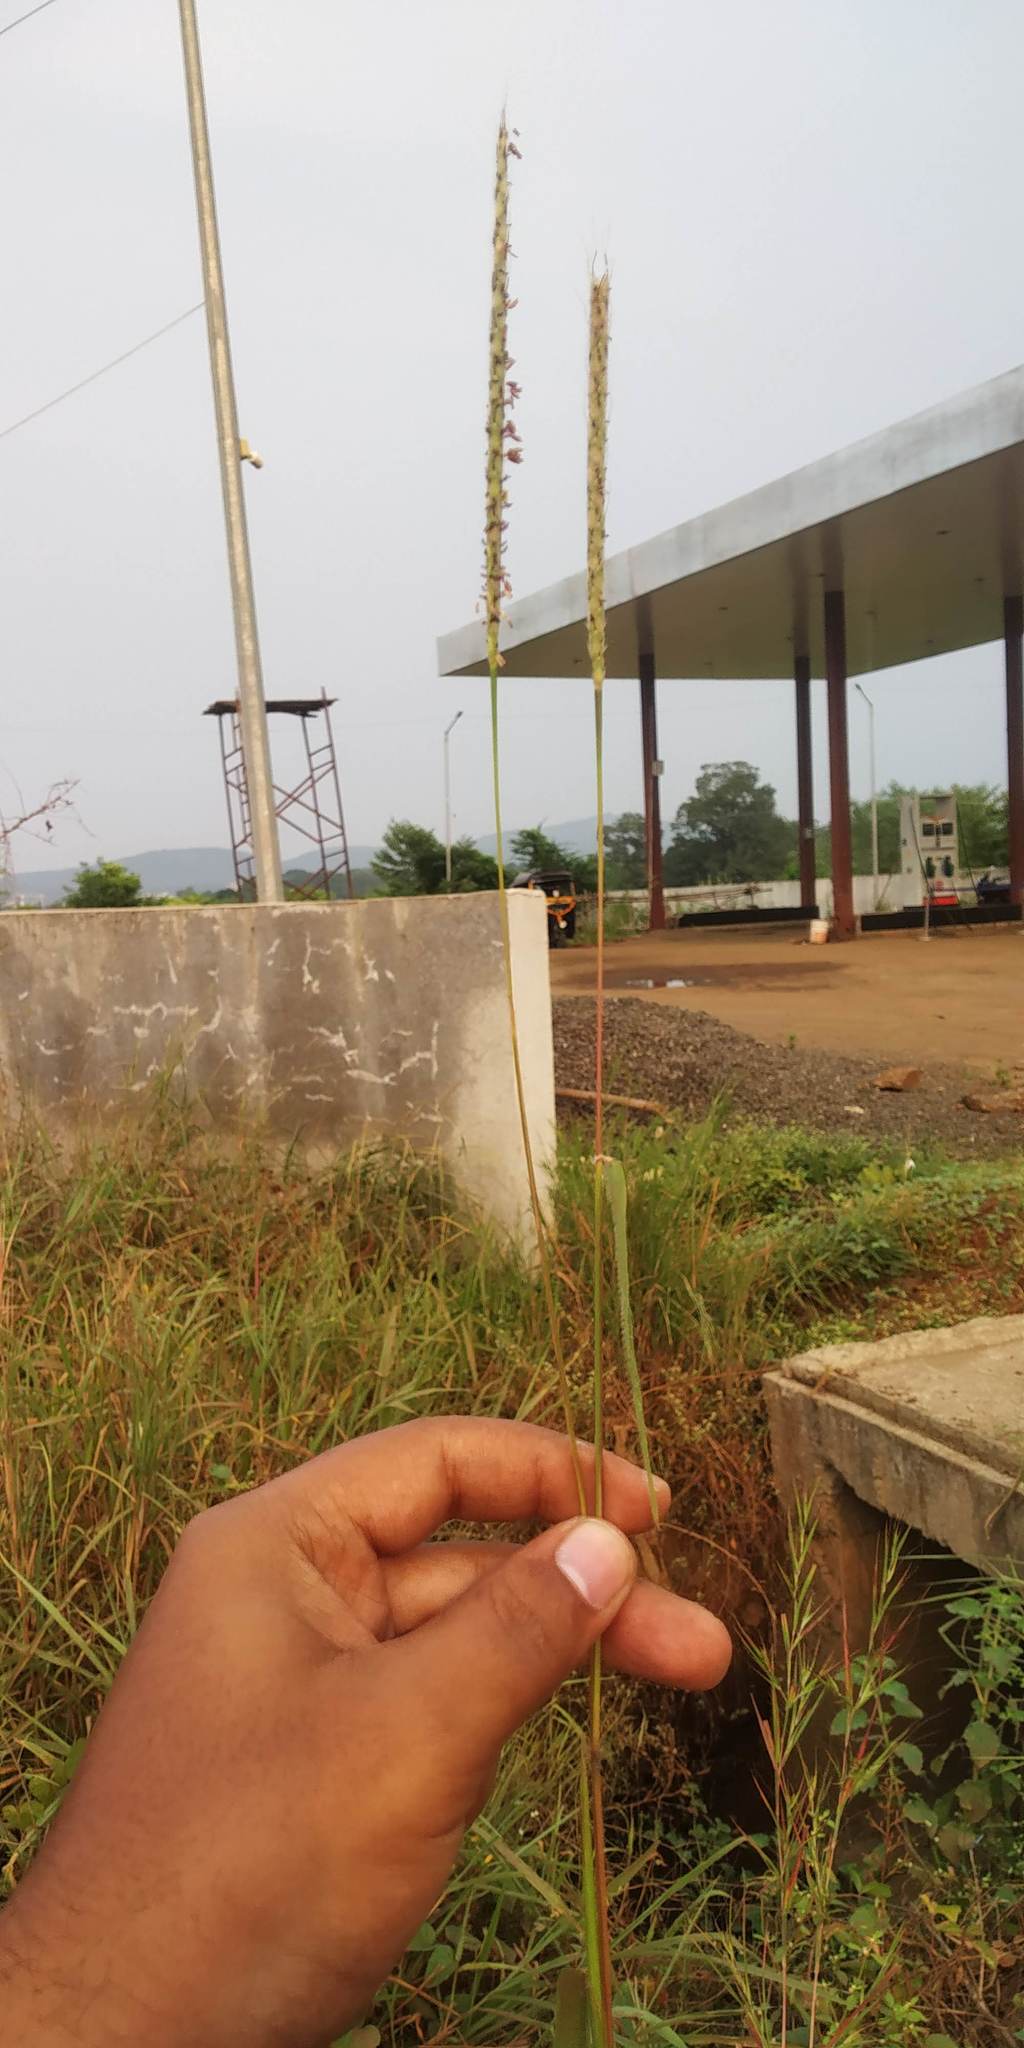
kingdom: Plantae
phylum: Tracheophyta
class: Liliopsida
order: Poales
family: Poaceae
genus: Ischaemum
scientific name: Ischaemum molle
